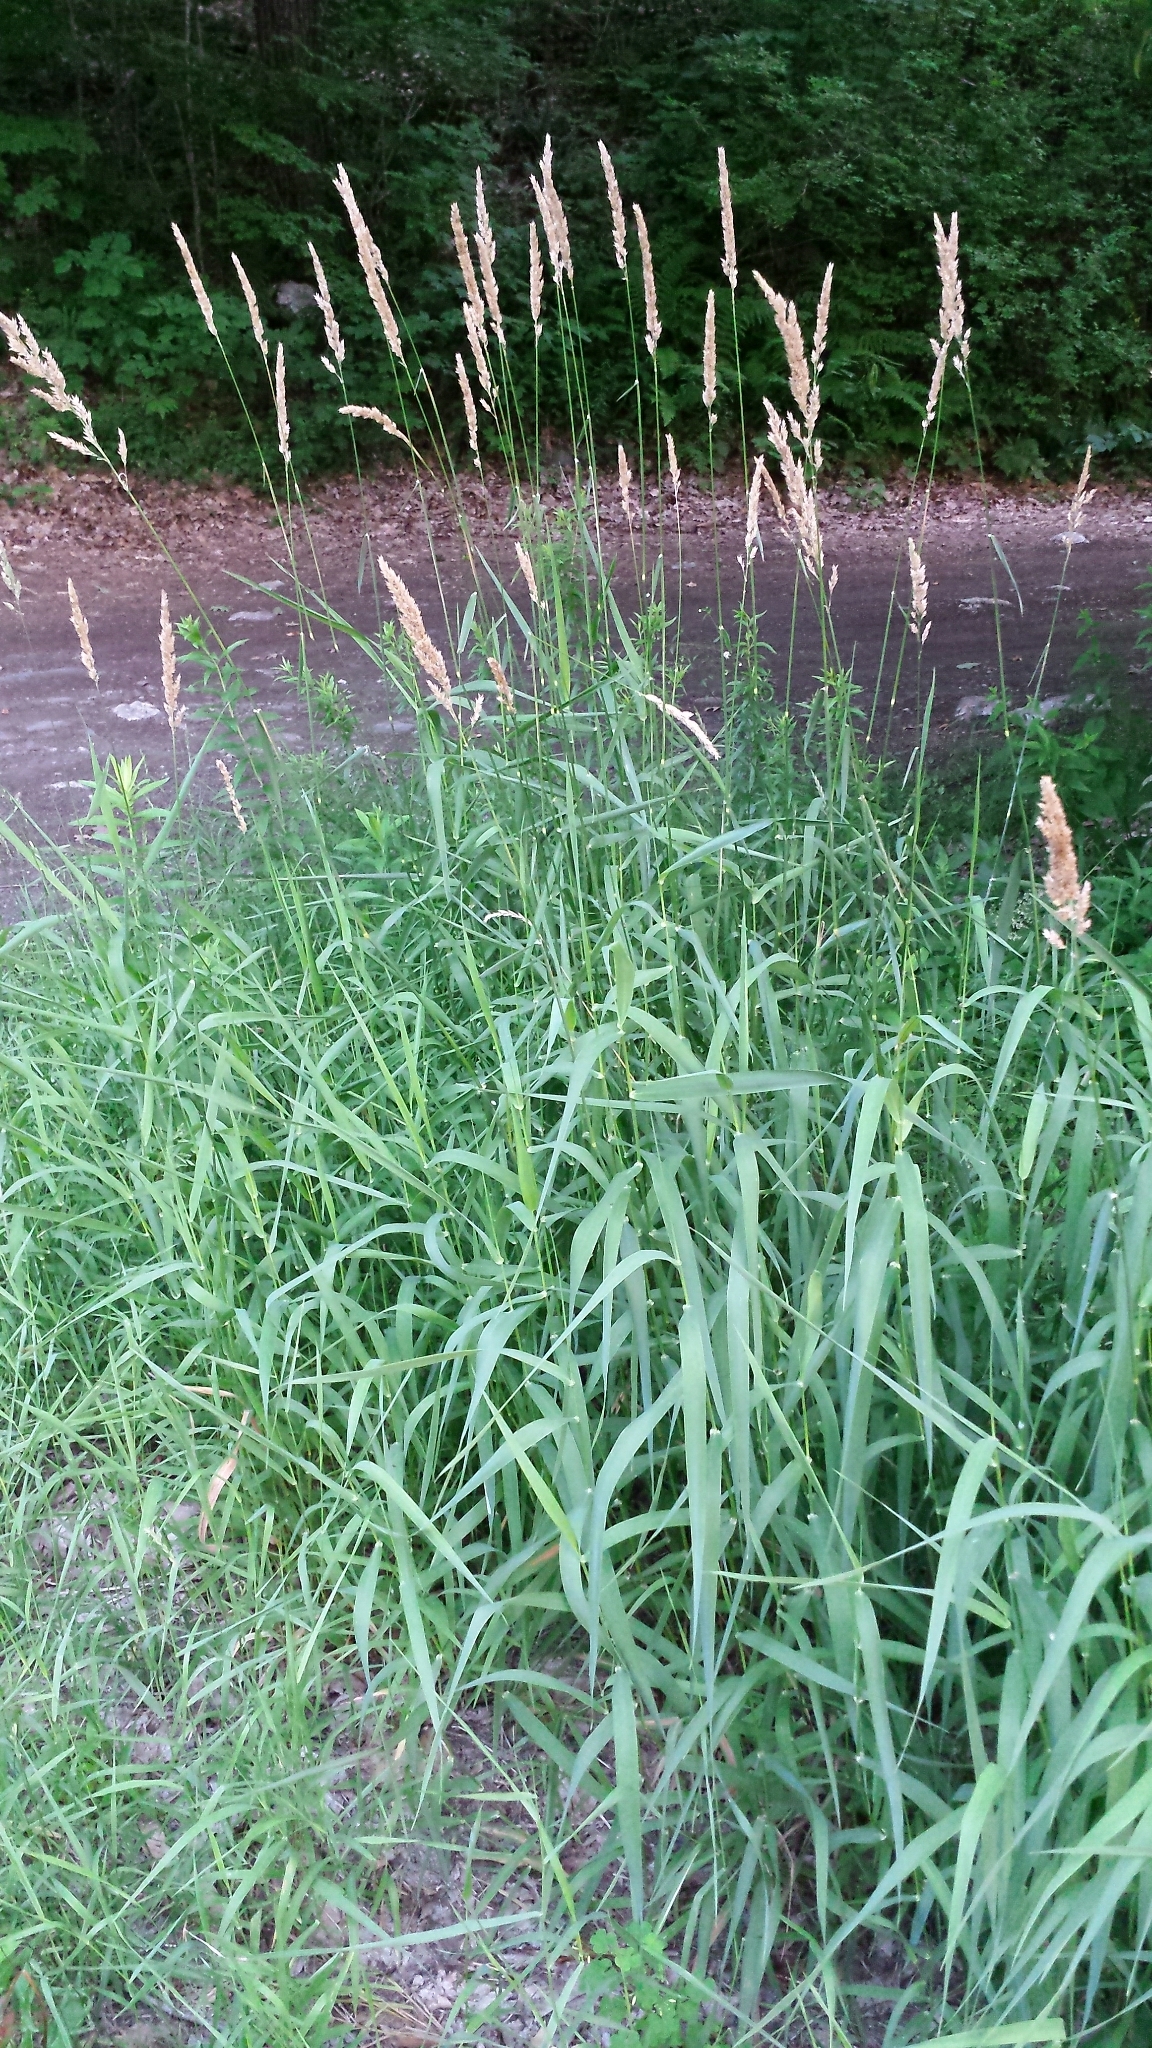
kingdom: Plantae
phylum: Tracheophyta
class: Liliopsida
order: Poales
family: Poaceae
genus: Phalaris
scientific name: Phalaris arundinacea
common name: Reed canary-grass
